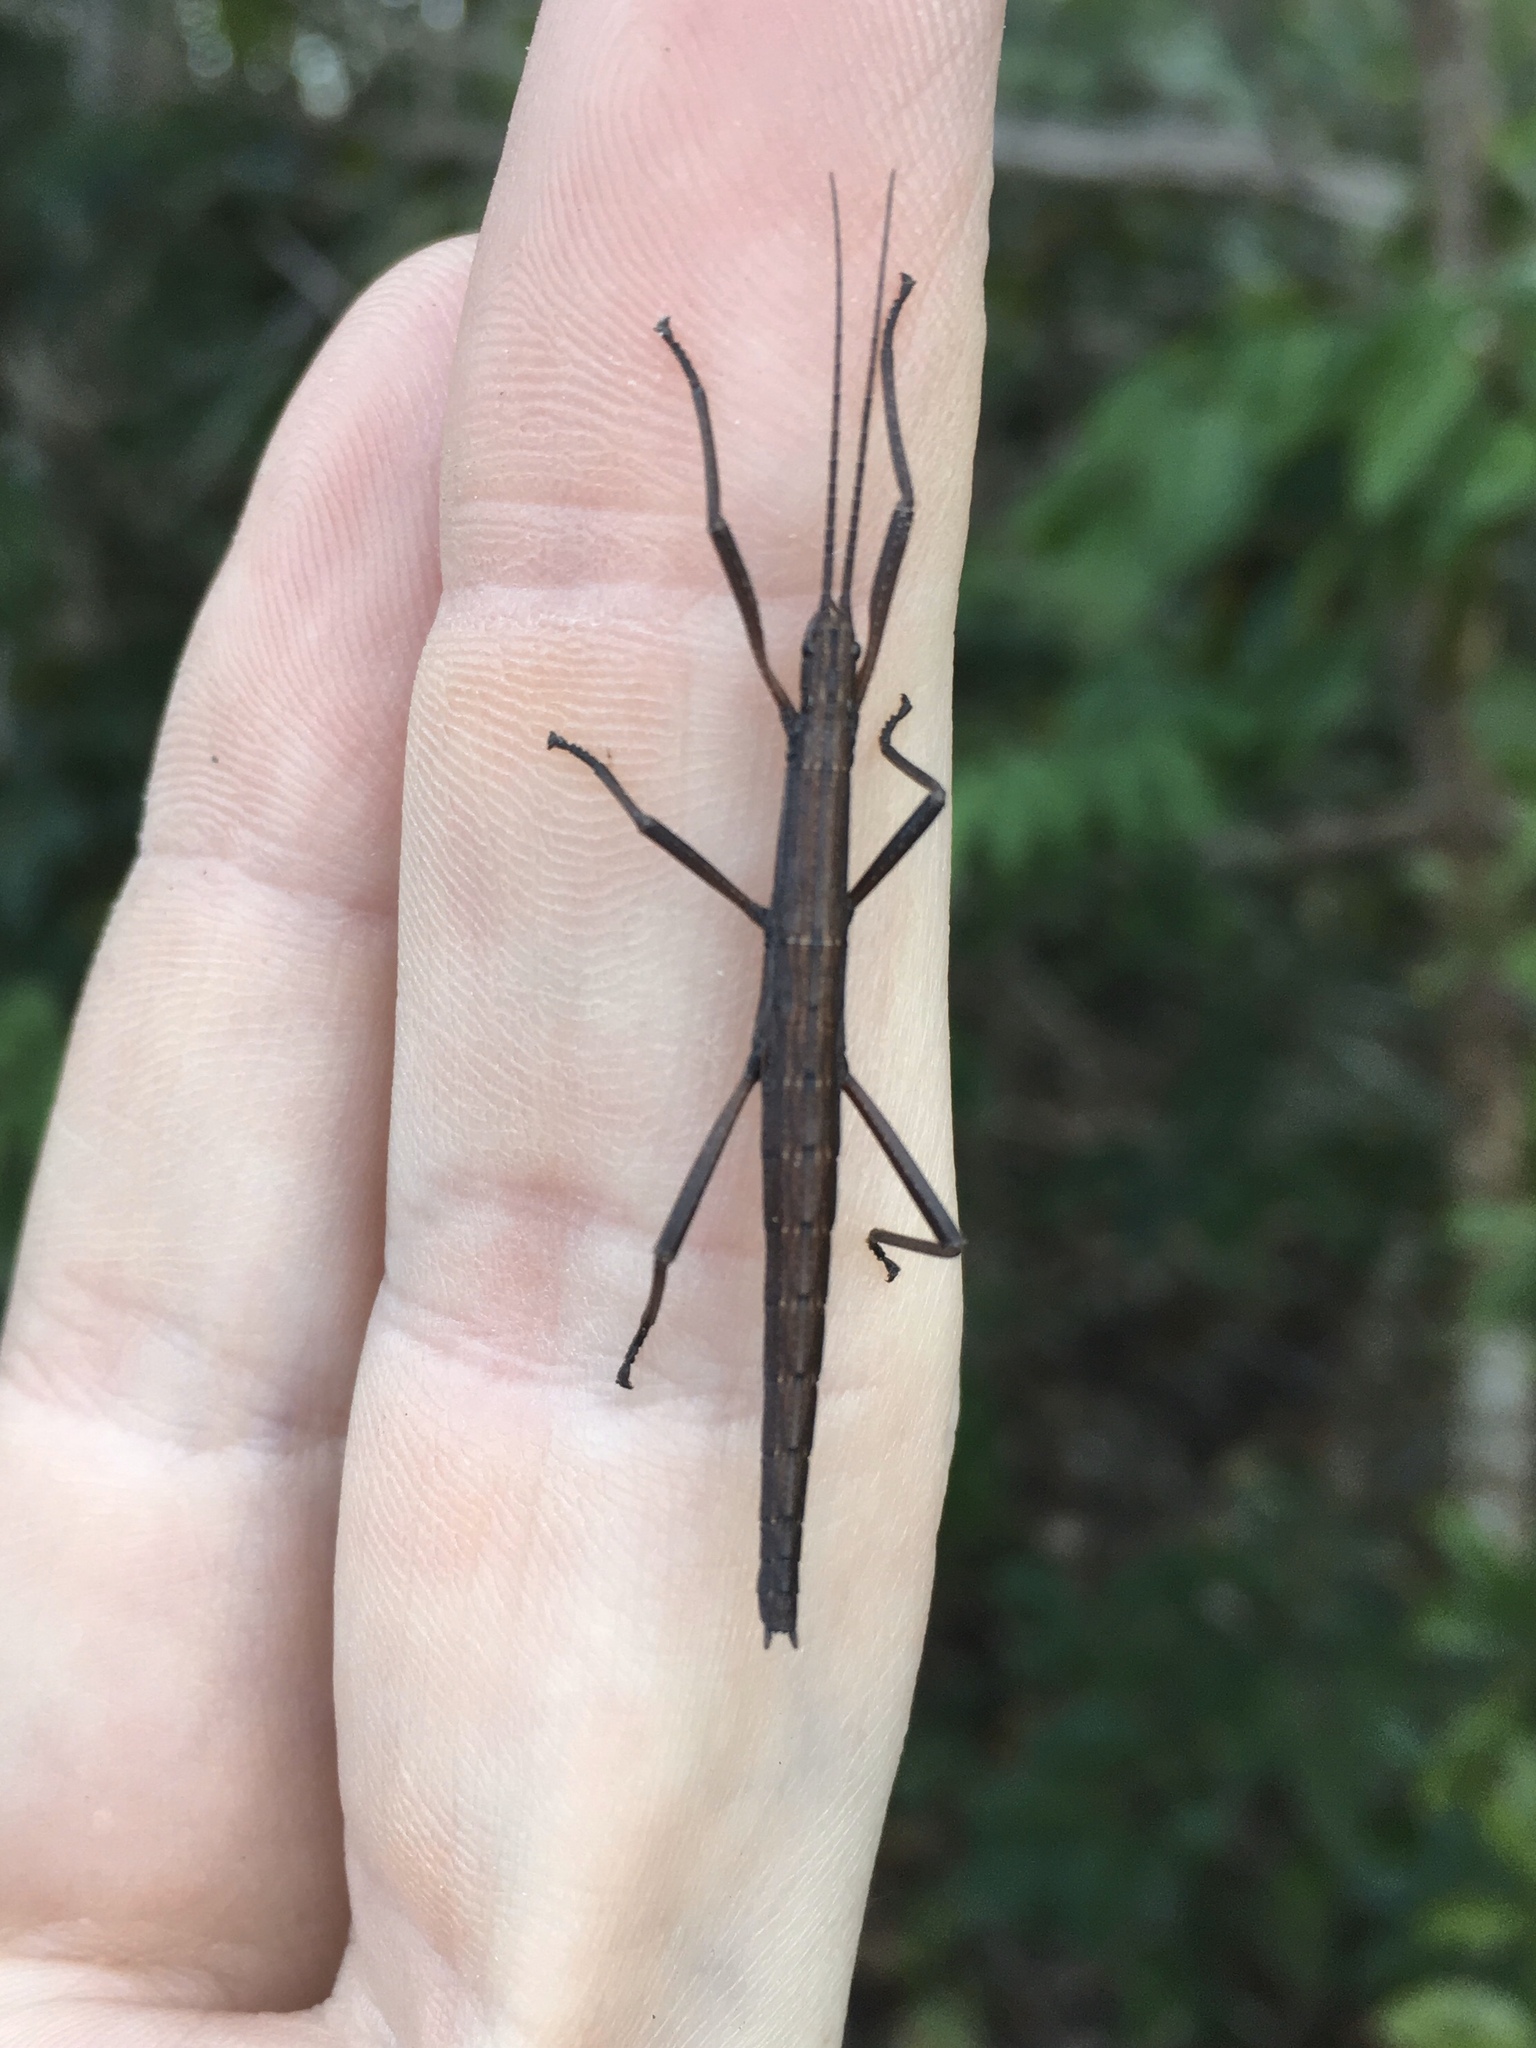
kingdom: Animalia
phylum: Arthropoda
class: Insecta
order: Phasmida
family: Pseudophasmatidae
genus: Anisomorpha
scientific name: Anisomorpha buprestoides
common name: Florida stick insect
